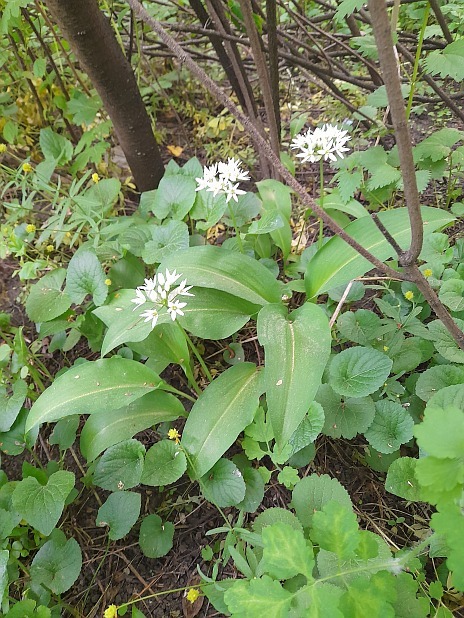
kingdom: Plantae
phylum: Tracheophyta
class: Liliopsida
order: Asparagales
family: Amaryllidaceae
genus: Allium
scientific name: Allium ursinum
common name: Ramsons
